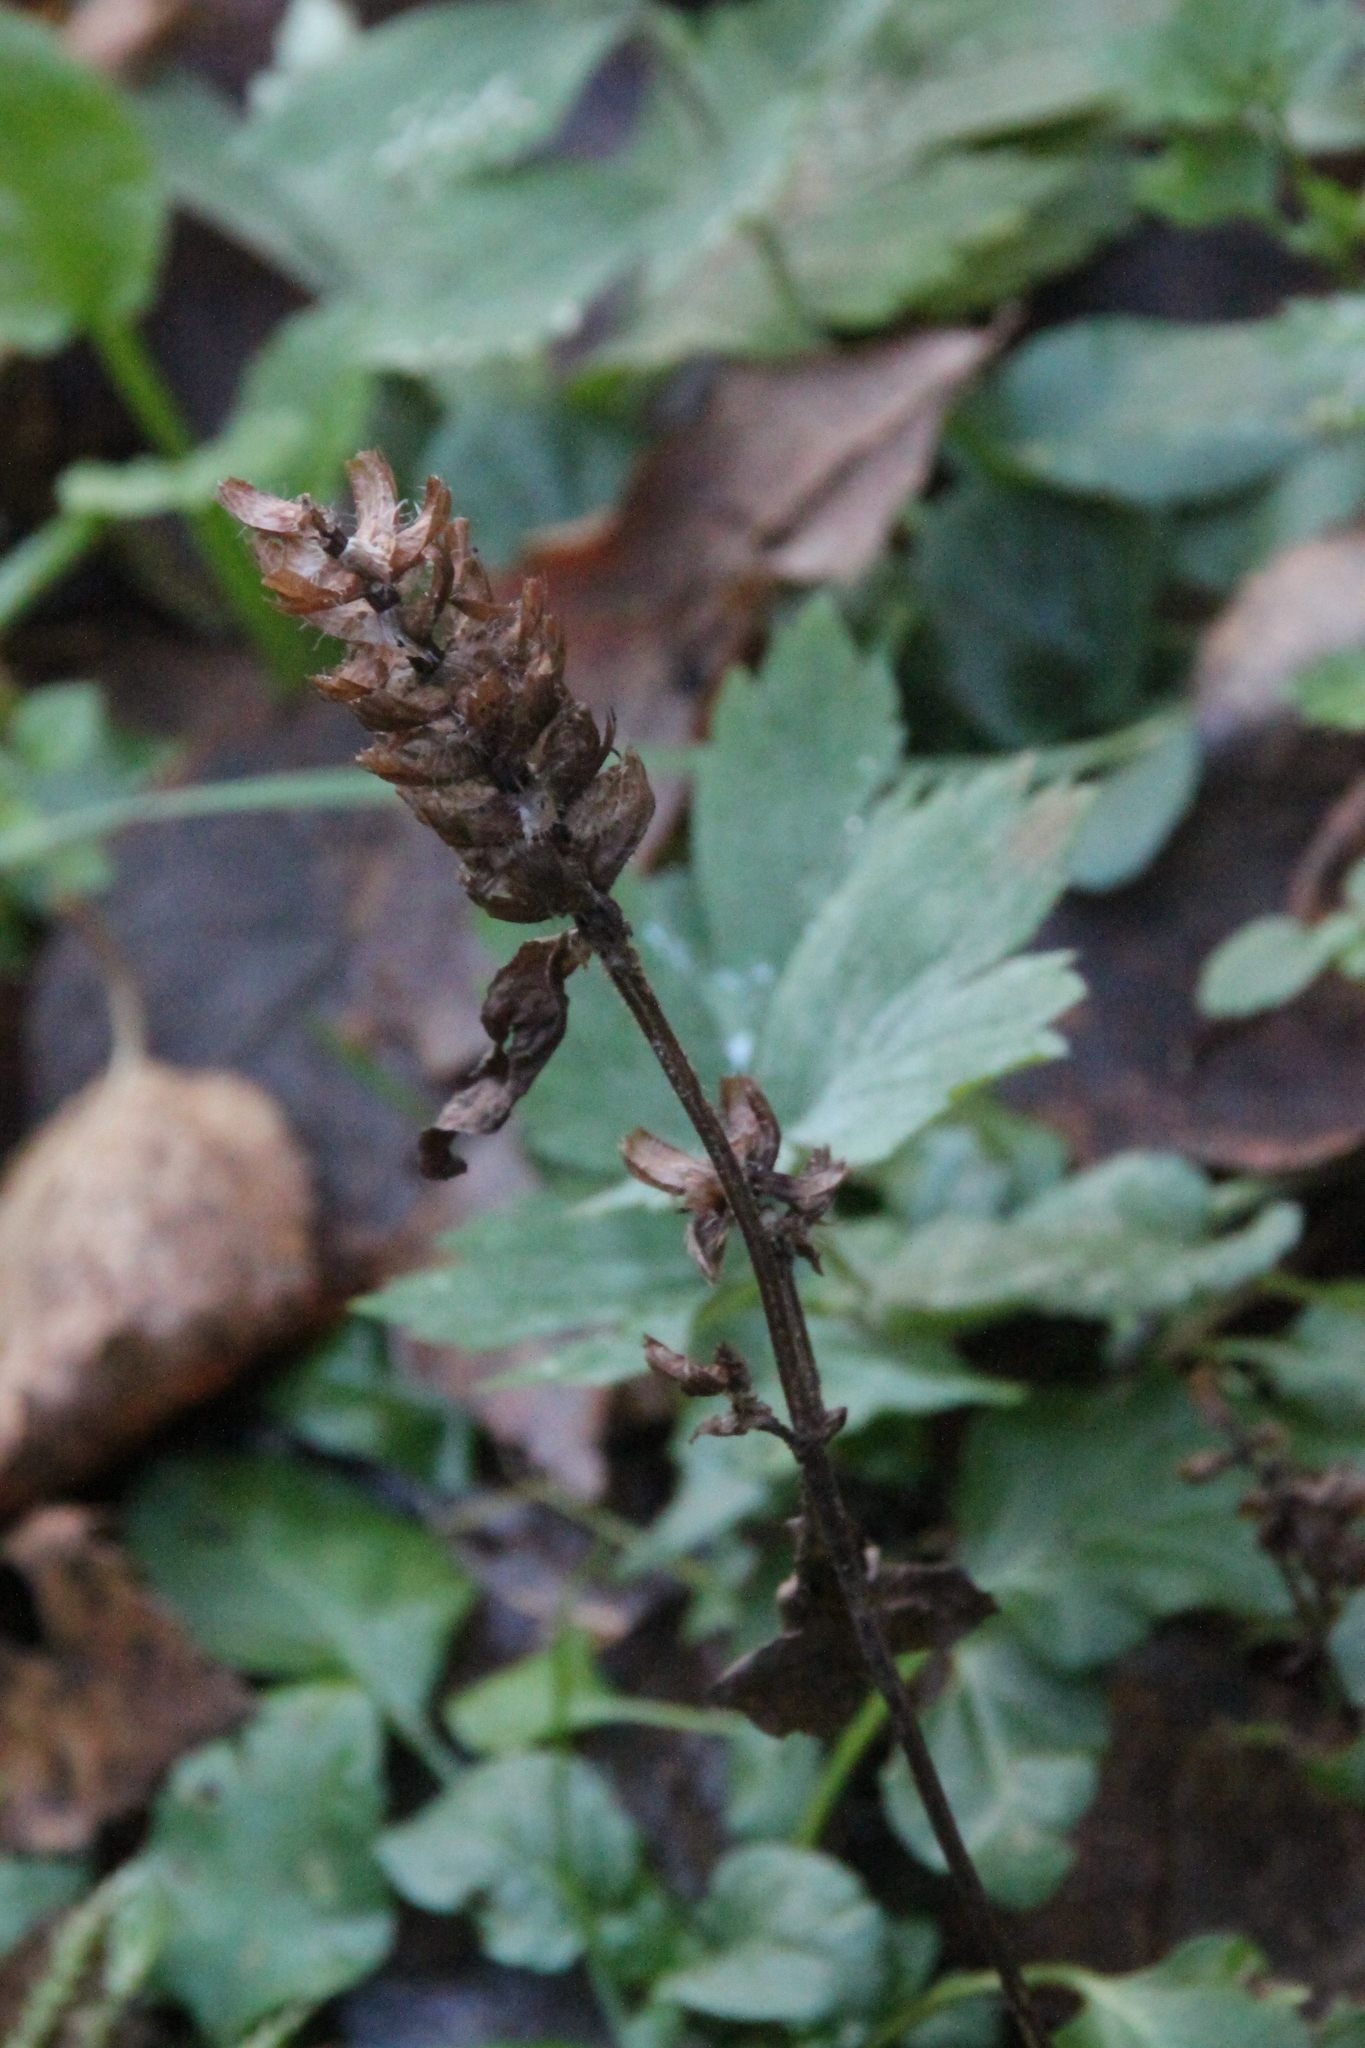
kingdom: Plantae
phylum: Tracheophyta
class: Magnoliopsida
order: Lamiales
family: Lamiaceae
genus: Prunella
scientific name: Prunella vulgaris
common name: Heal-all
